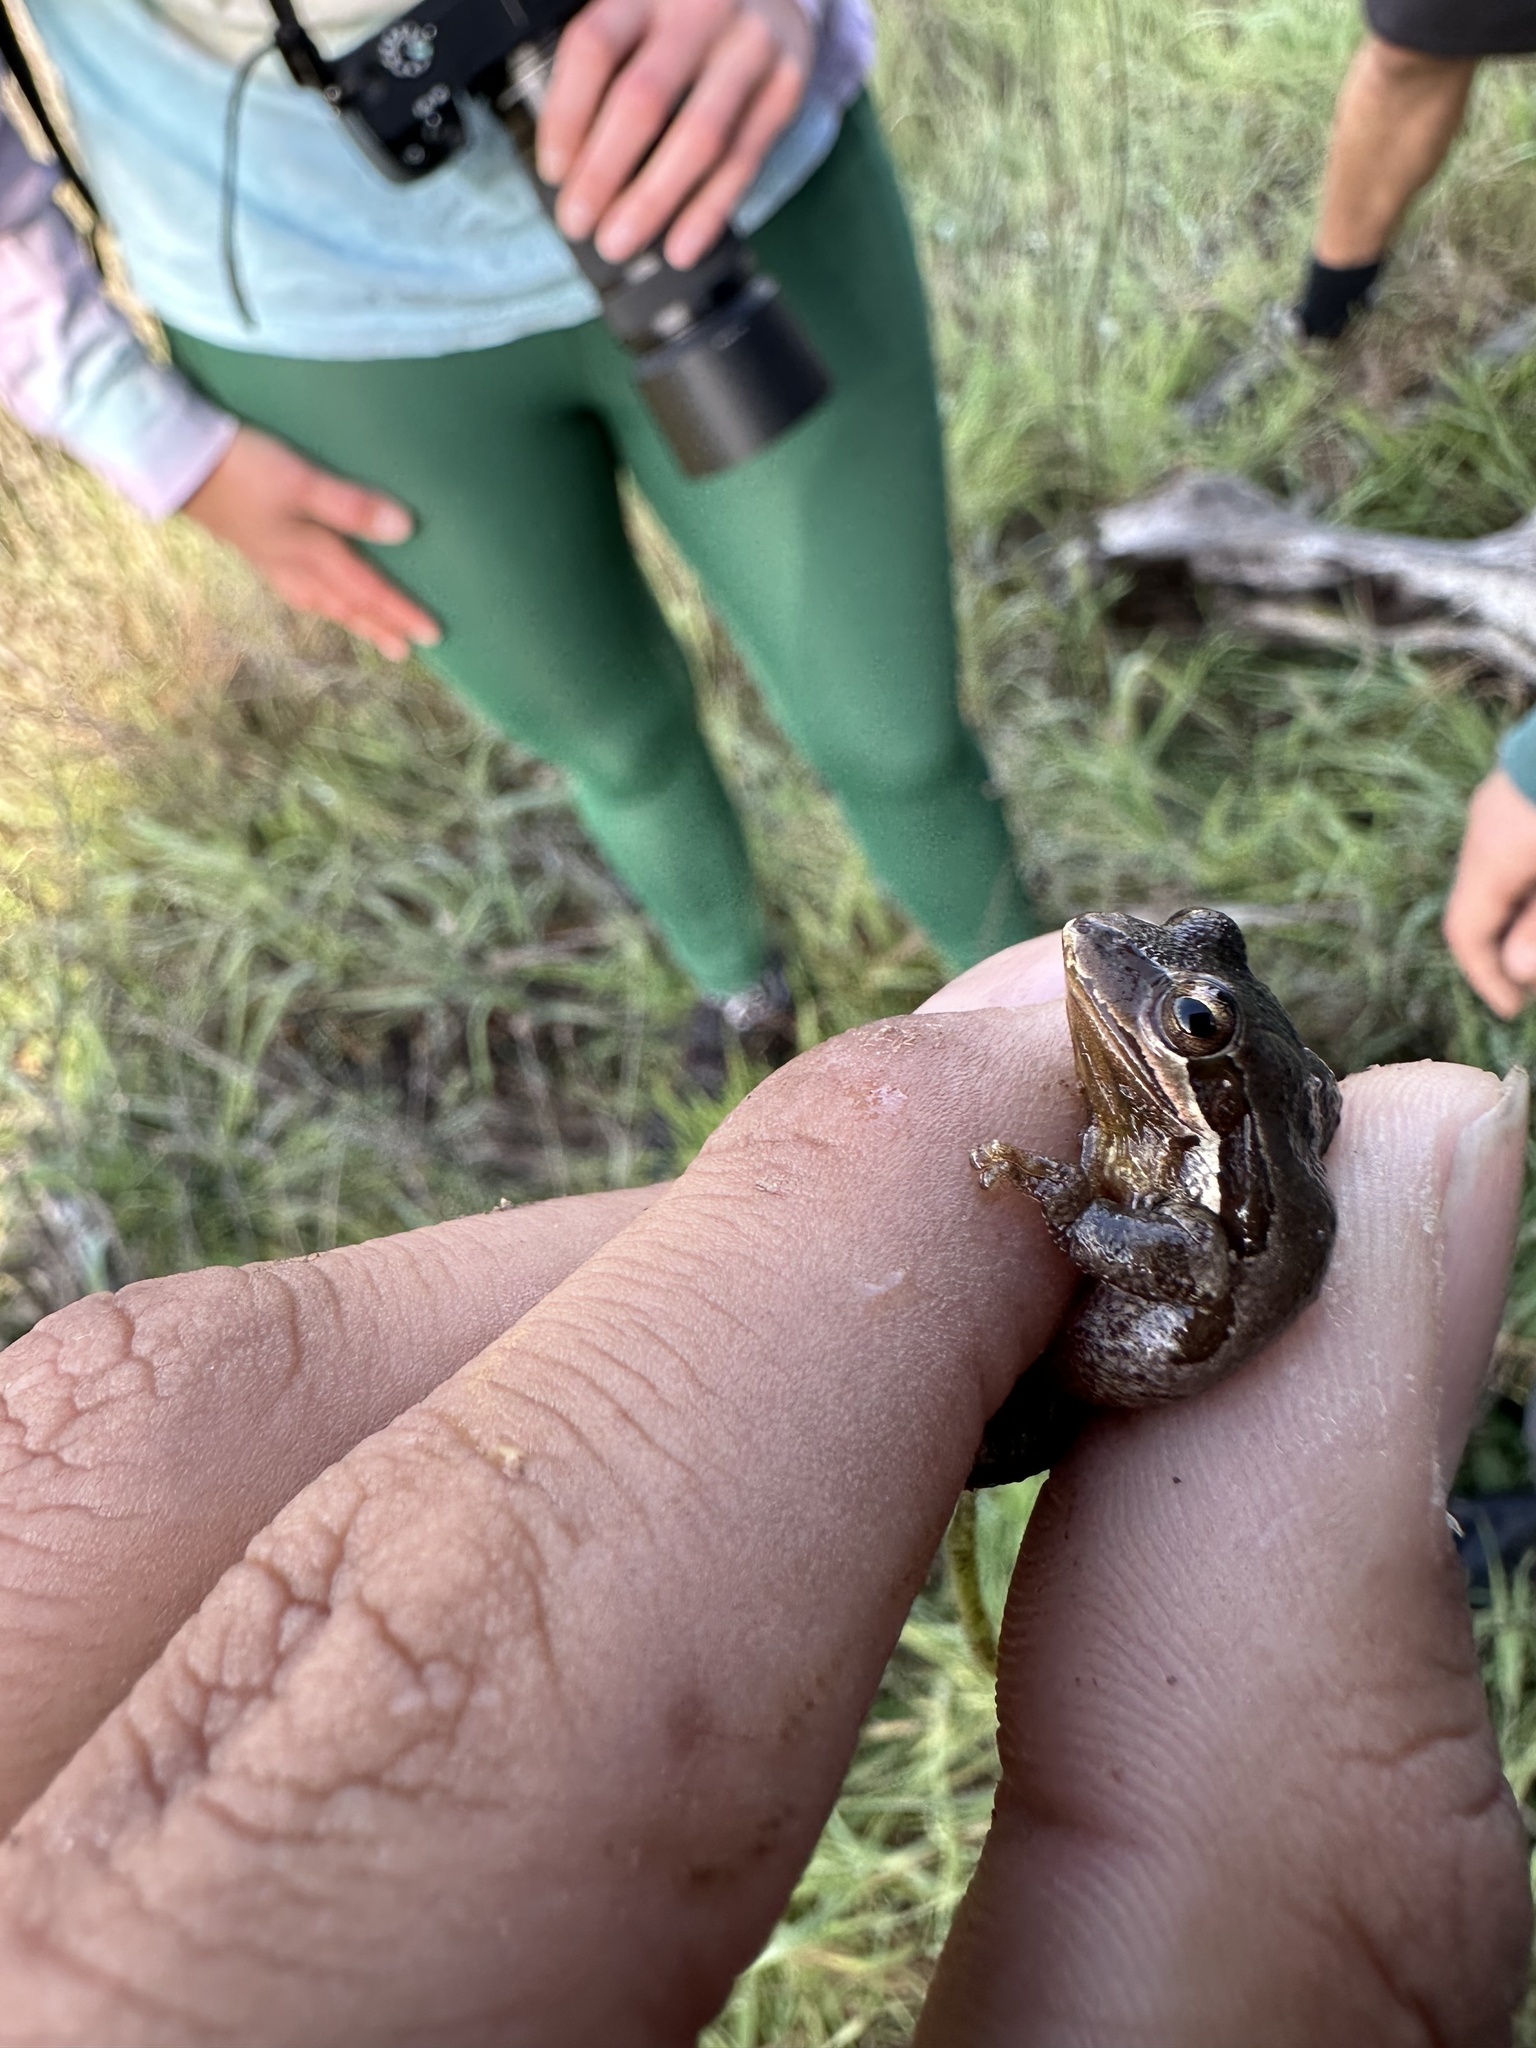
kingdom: Animalia
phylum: Chordata
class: Amphibia
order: Anura
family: Hylidae
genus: Pseudacris
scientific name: Pseudacris regilla
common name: Pacific chorus frog
